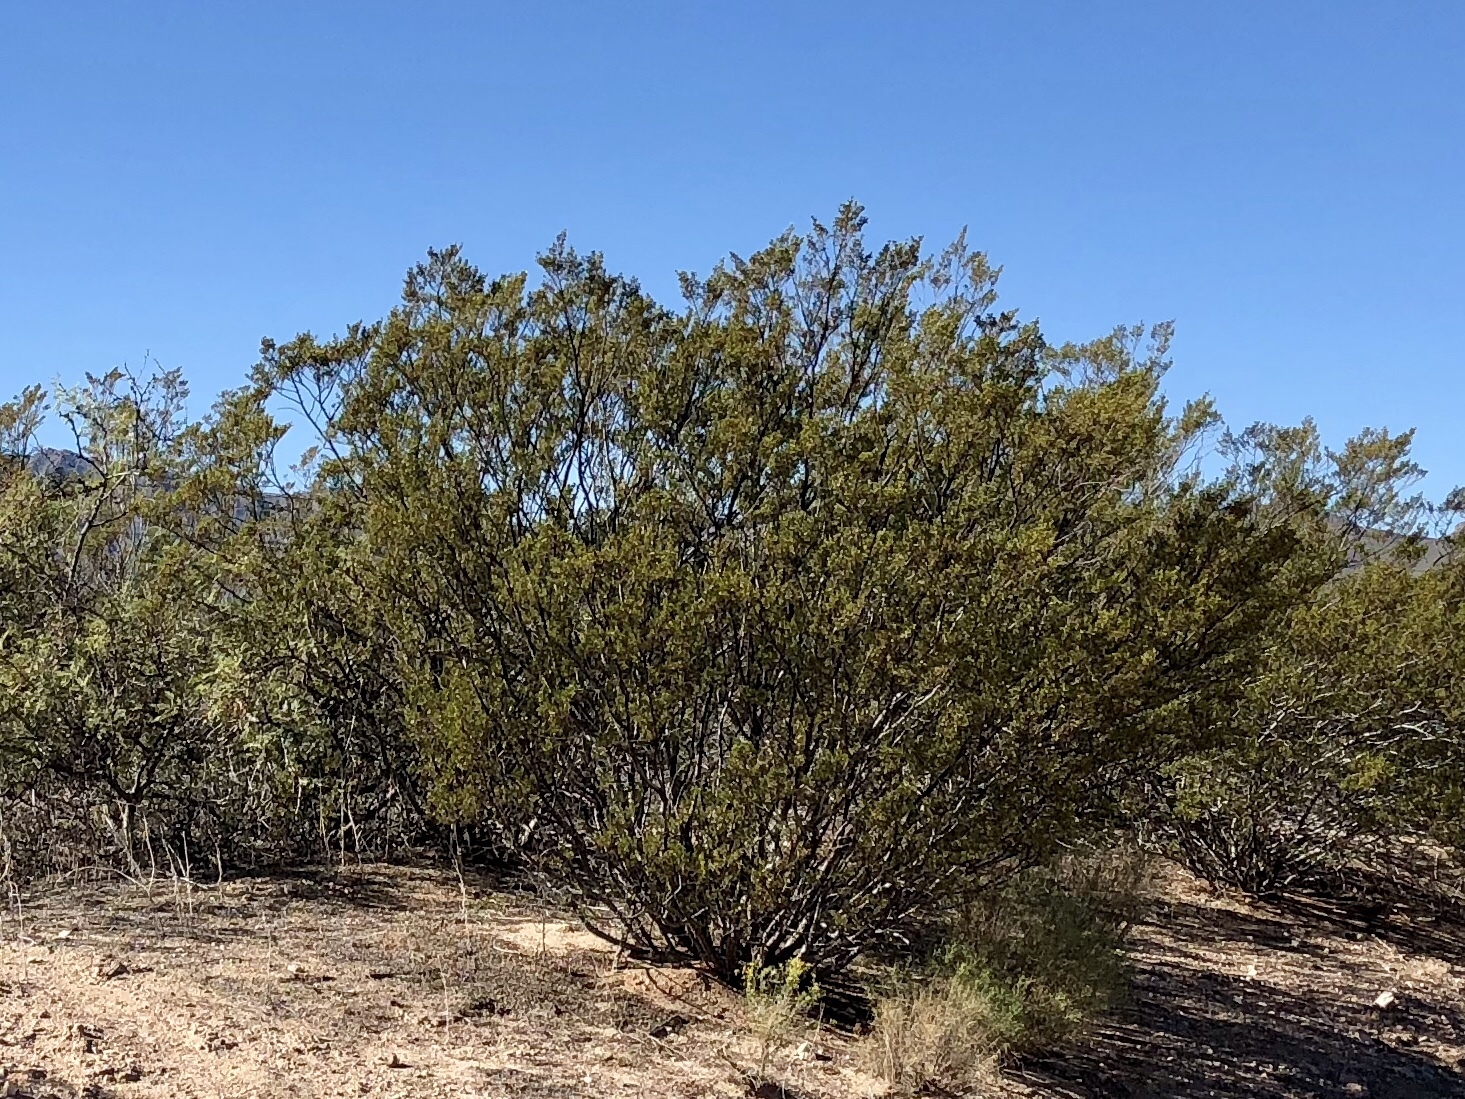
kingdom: Plantae
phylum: Tracheophyta
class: Magnoliopsida
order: Zygophyllales
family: Zygophyllaceae
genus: Larrea
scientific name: Larrea tridentata
